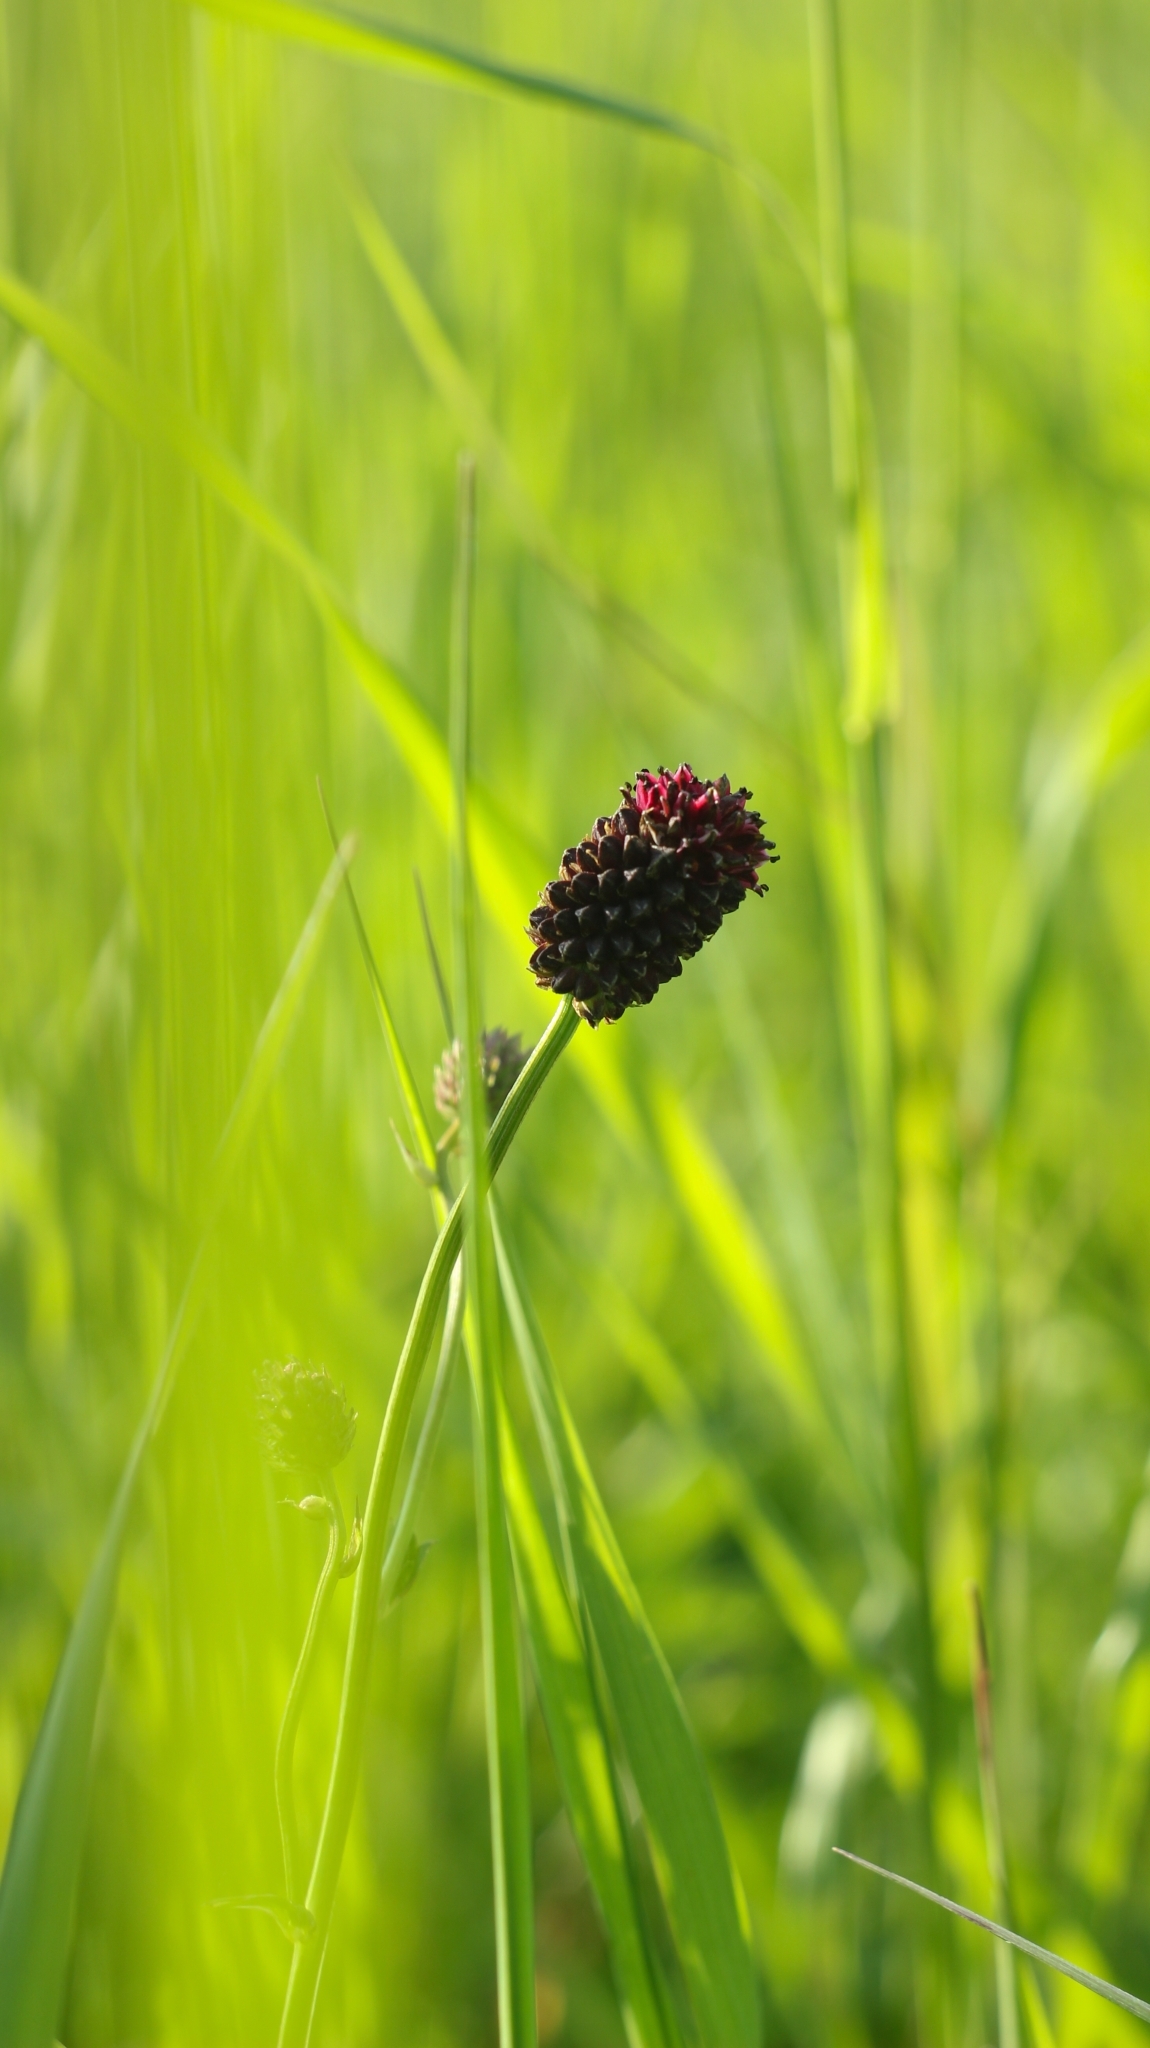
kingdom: Plantae
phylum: Tracheophyta
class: Magnoliopsida
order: Rosales
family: Rosaceae
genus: Sanguisorba
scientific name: Sanguisorba officinalis
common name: Great burnet
